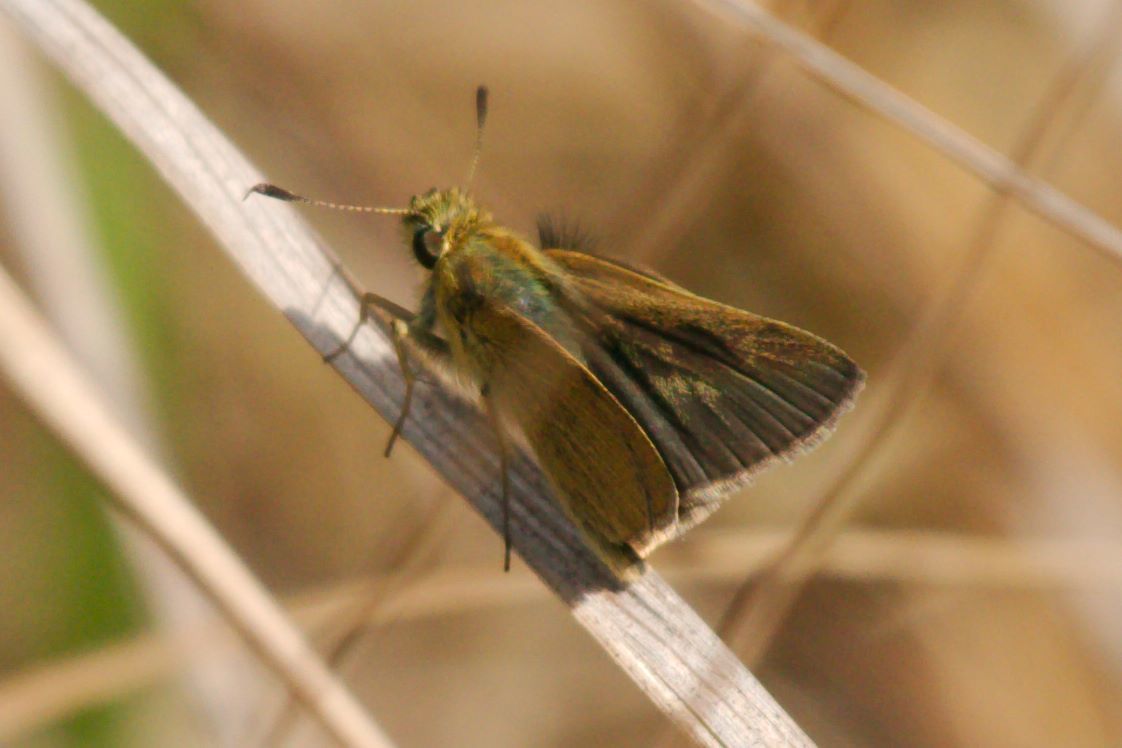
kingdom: Animalia
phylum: Arthropoda
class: Insecta
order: Lepidoptera
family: Hesperiidae
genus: Nastra
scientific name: Nastra lherminier
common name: Swarthy skipper
